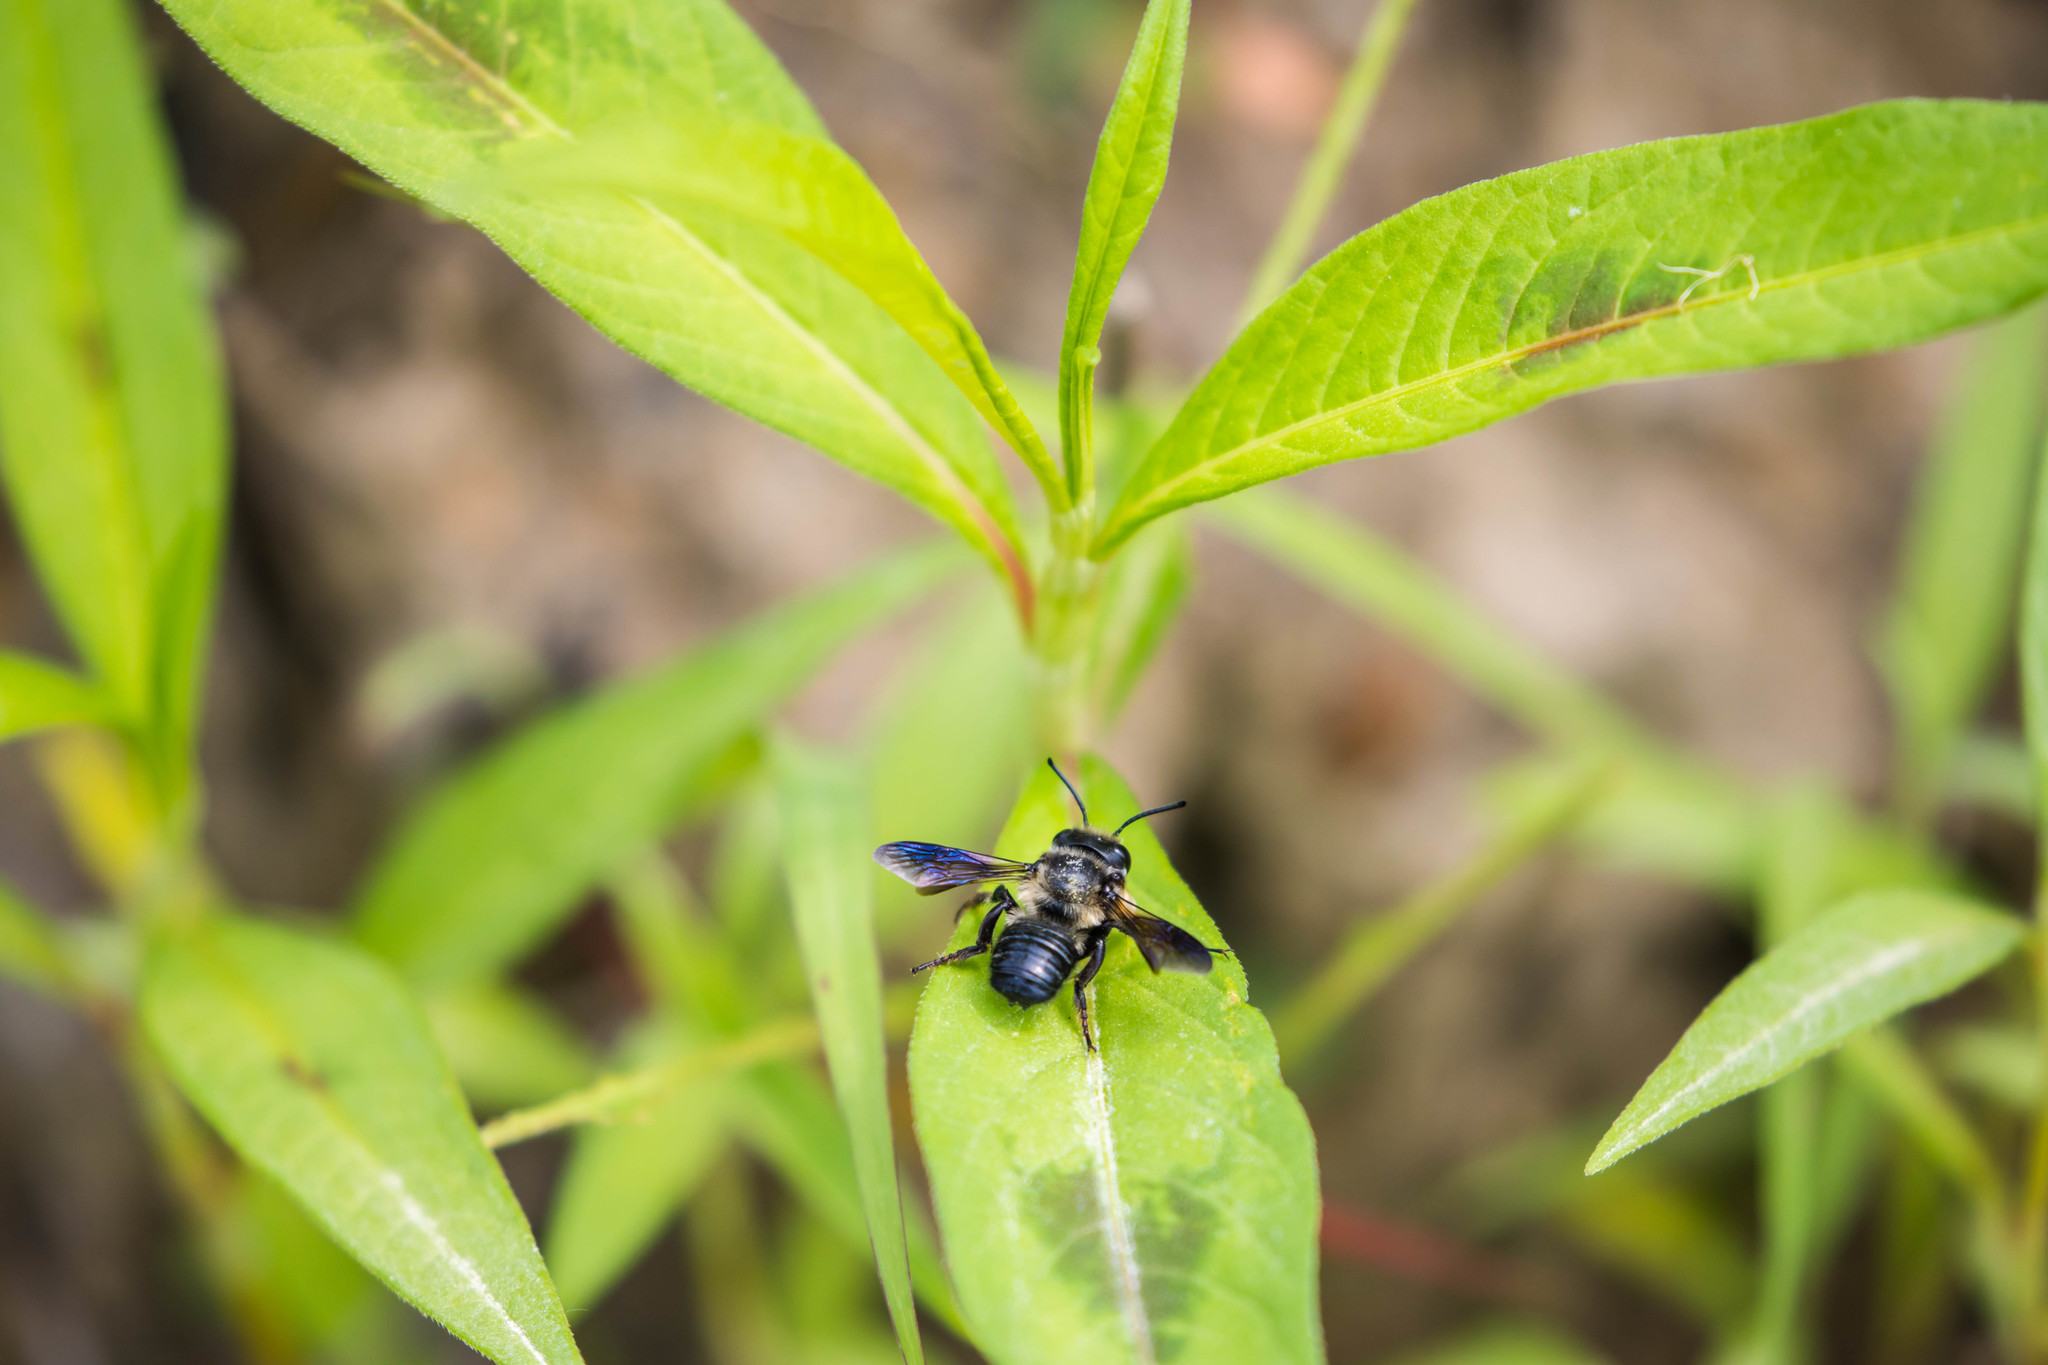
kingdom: Animalia
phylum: Arthropoda
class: Insecta
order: Hymenoptera
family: Megachilidae
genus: Megachile
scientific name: Megachile xylocopoides
